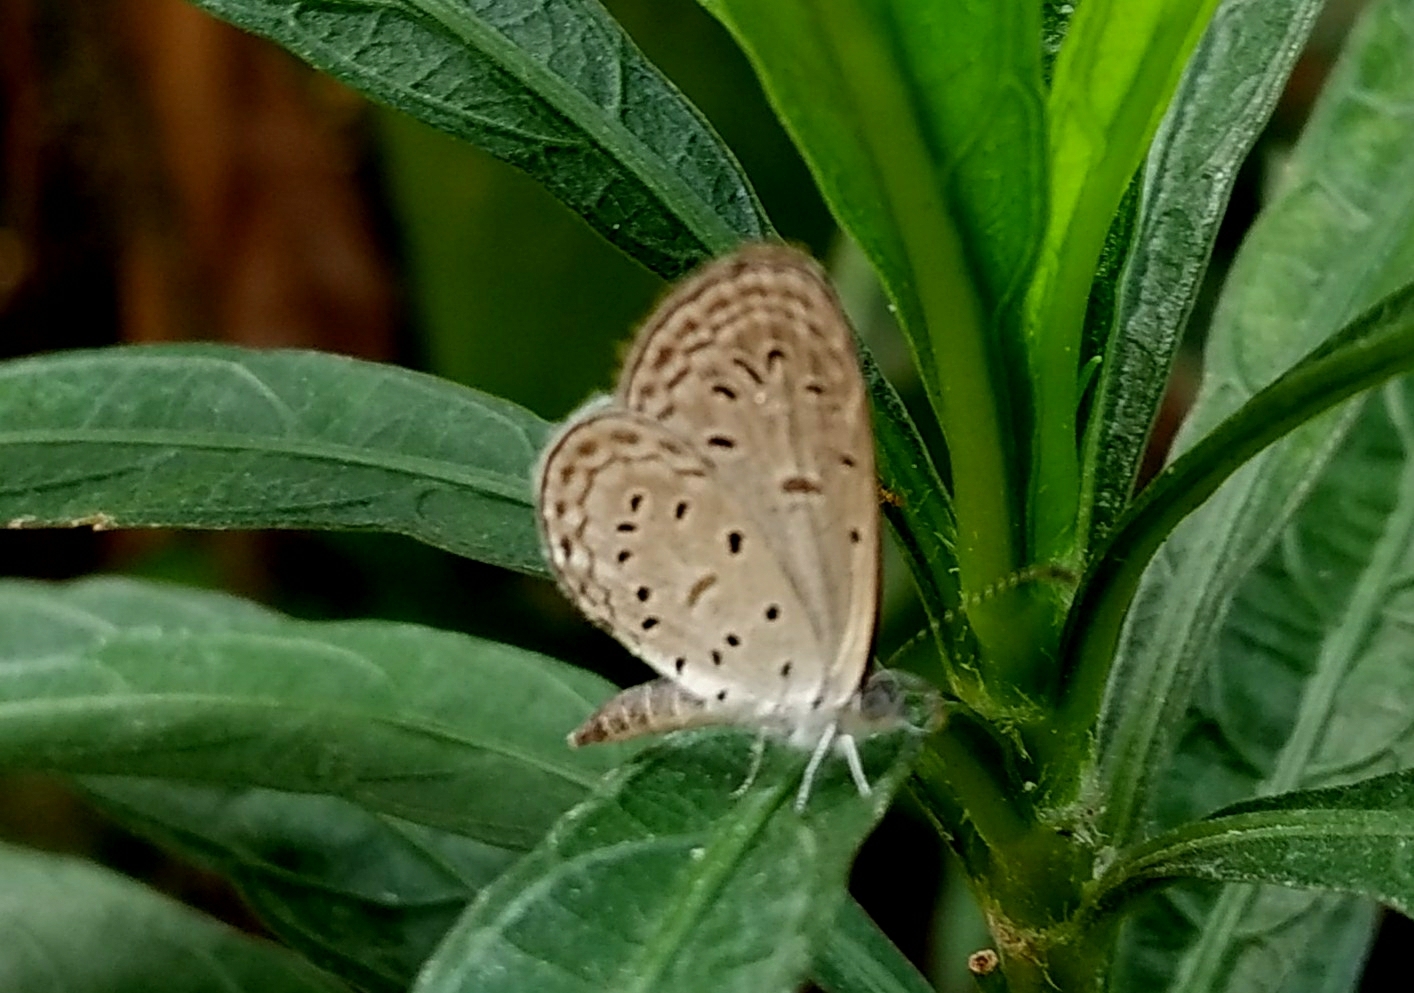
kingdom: Animalia
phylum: Arthropoda
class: Insecta
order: Lepidoptera
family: Lycaenidae
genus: Zizula
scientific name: Zizula hylax
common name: Gaika blue
